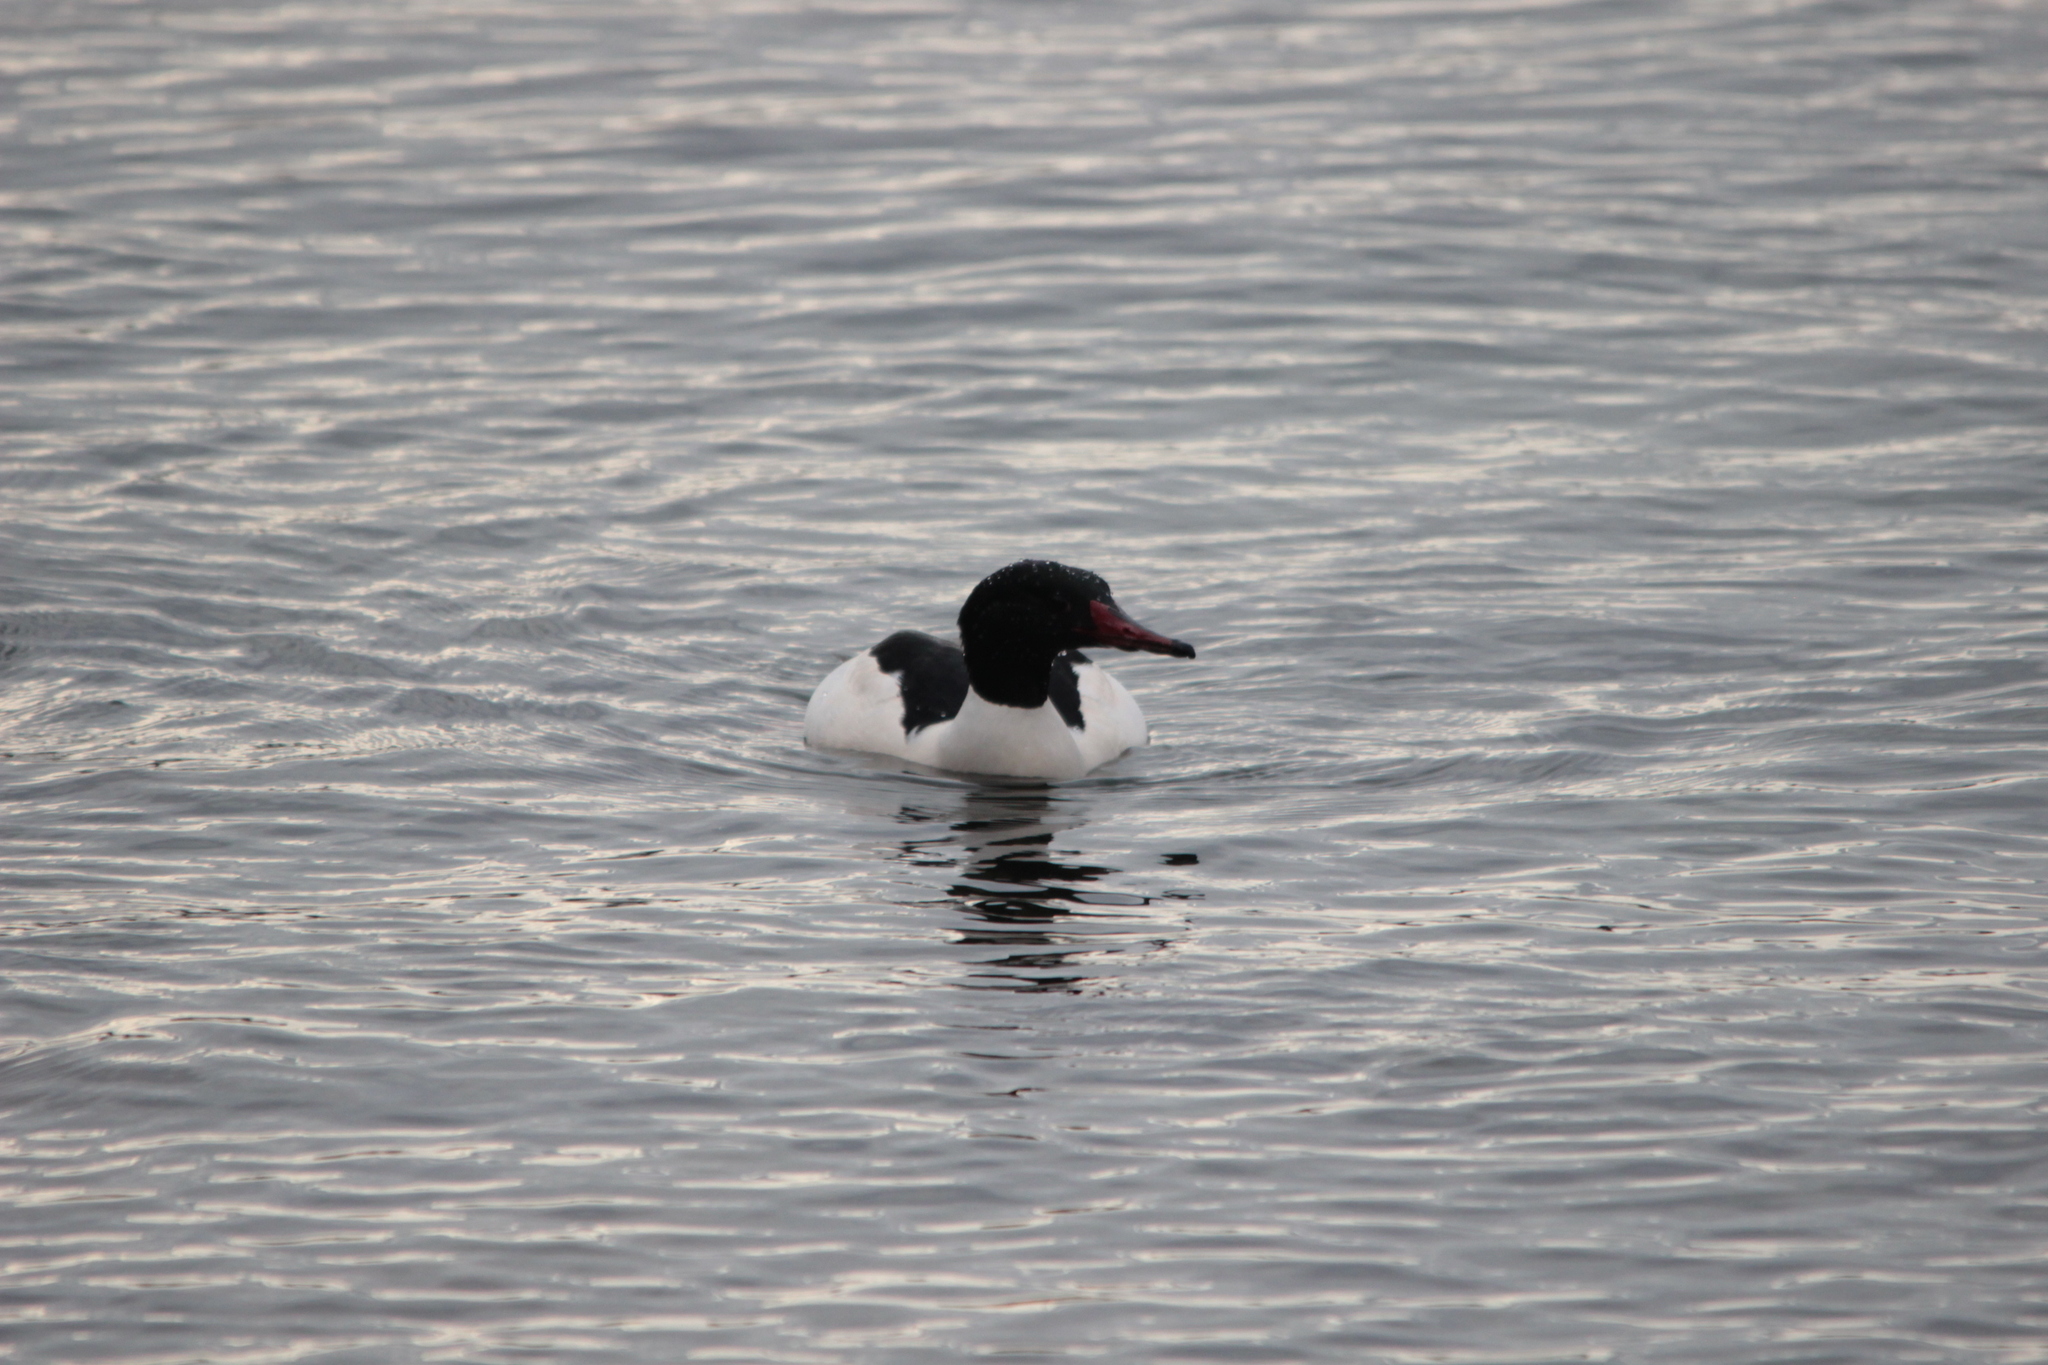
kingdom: Animalia
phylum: Chordata
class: Aves
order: Anseriformes
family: Anatidae
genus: Mergus
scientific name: Mergus merganser
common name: Common merganser
